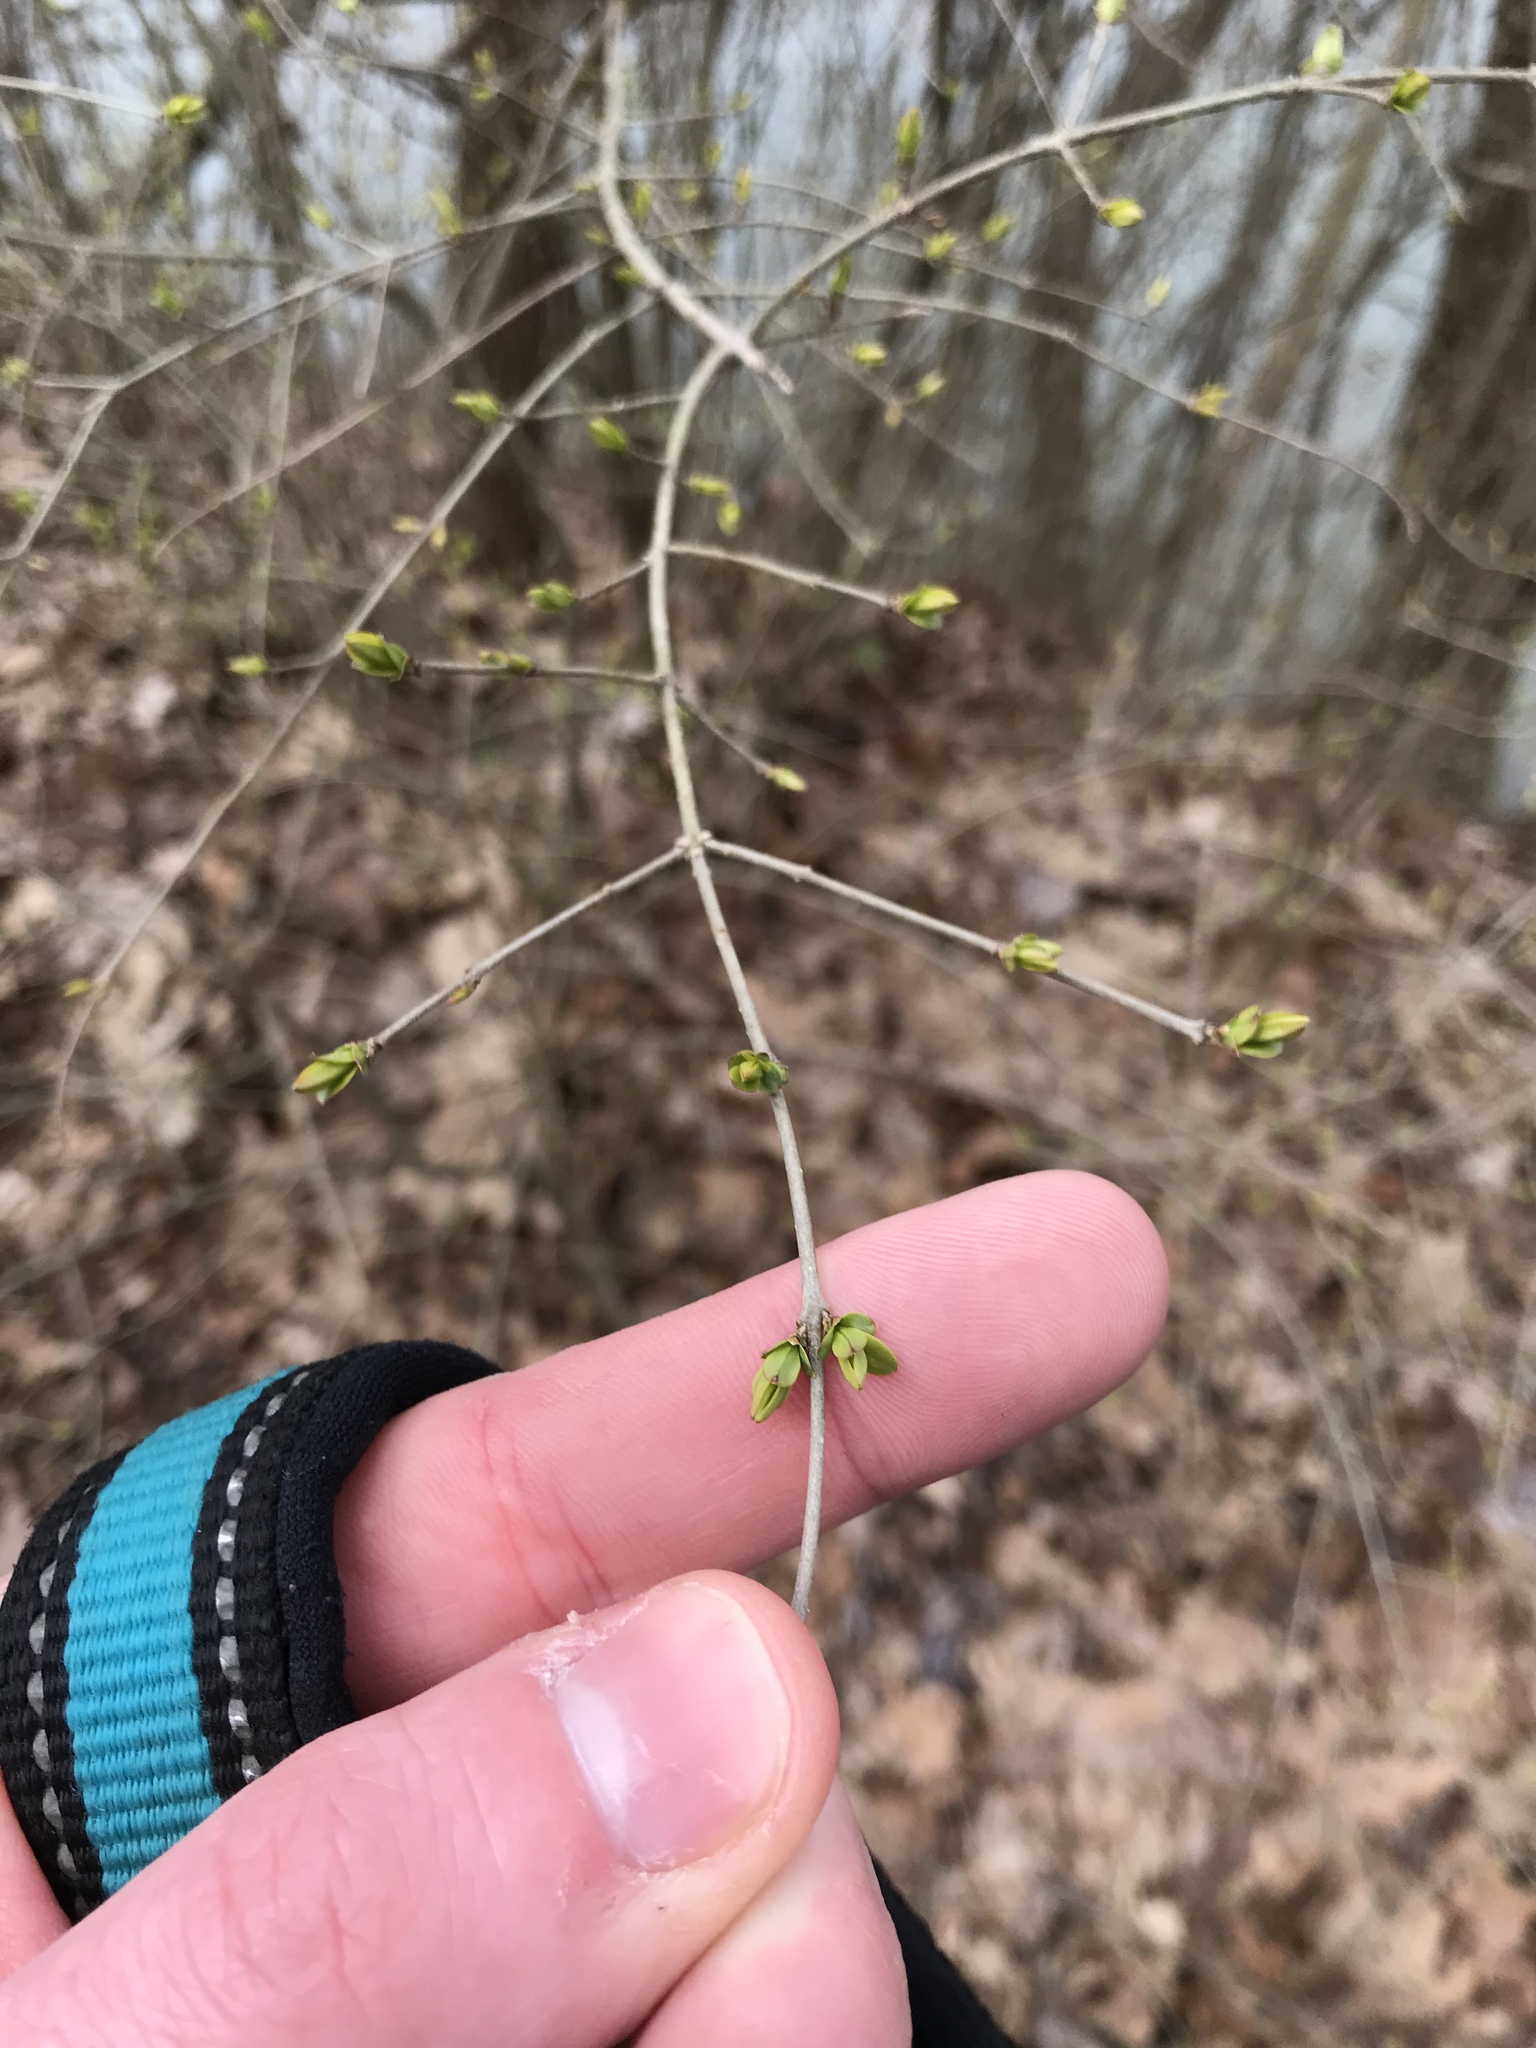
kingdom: Plantae
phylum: Tracheophyta
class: Magnoliopsida
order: Lamiales
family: Oleaceae
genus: Ligustrum
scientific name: Ligustrum
